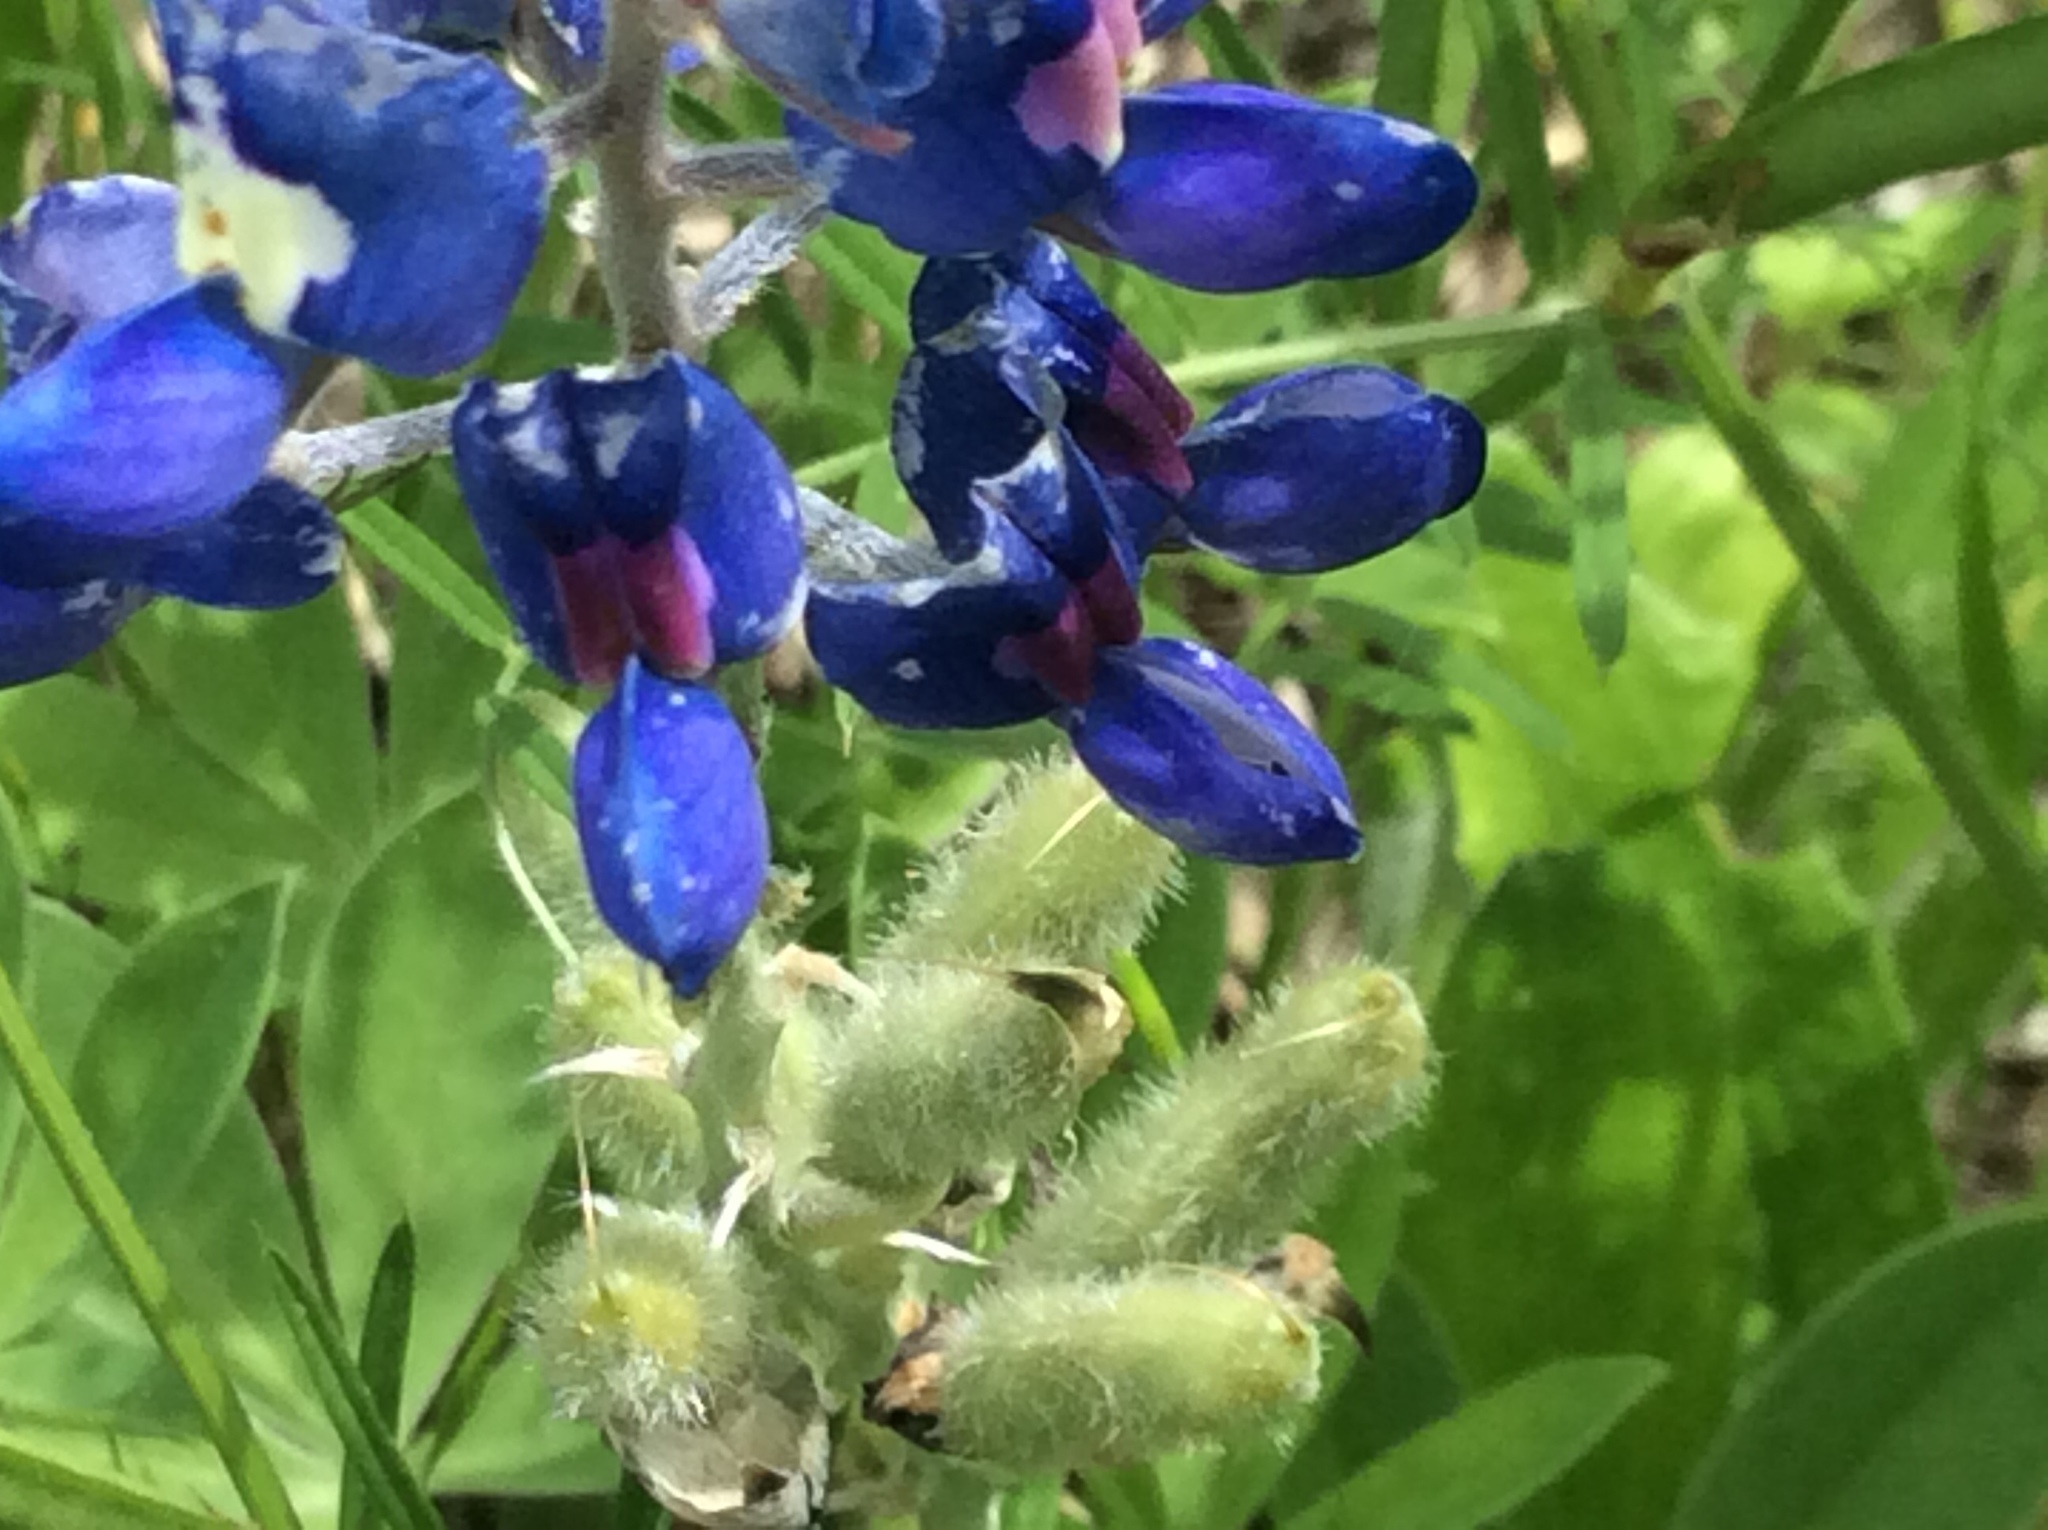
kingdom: Plantae
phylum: Tracheophyta
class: Magnoliopsida
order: Fabales
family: Fabaceae
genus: Lupinus
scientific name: Lupinus texensis
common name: Texas bluebonnet
